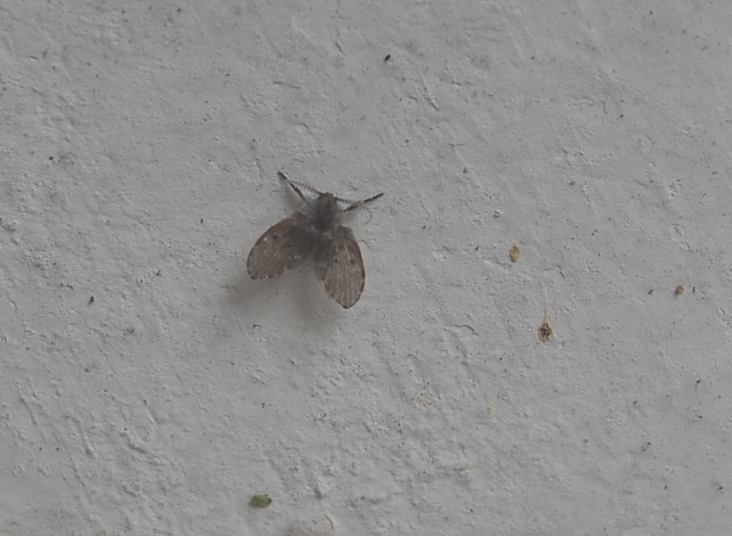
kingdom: Animalia
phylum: Arthropoda
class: Insecta
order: Diptera
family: Psychodidae
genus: Clogmia
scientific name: Clogmia albipunctatus
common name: White-spotted moth fly
